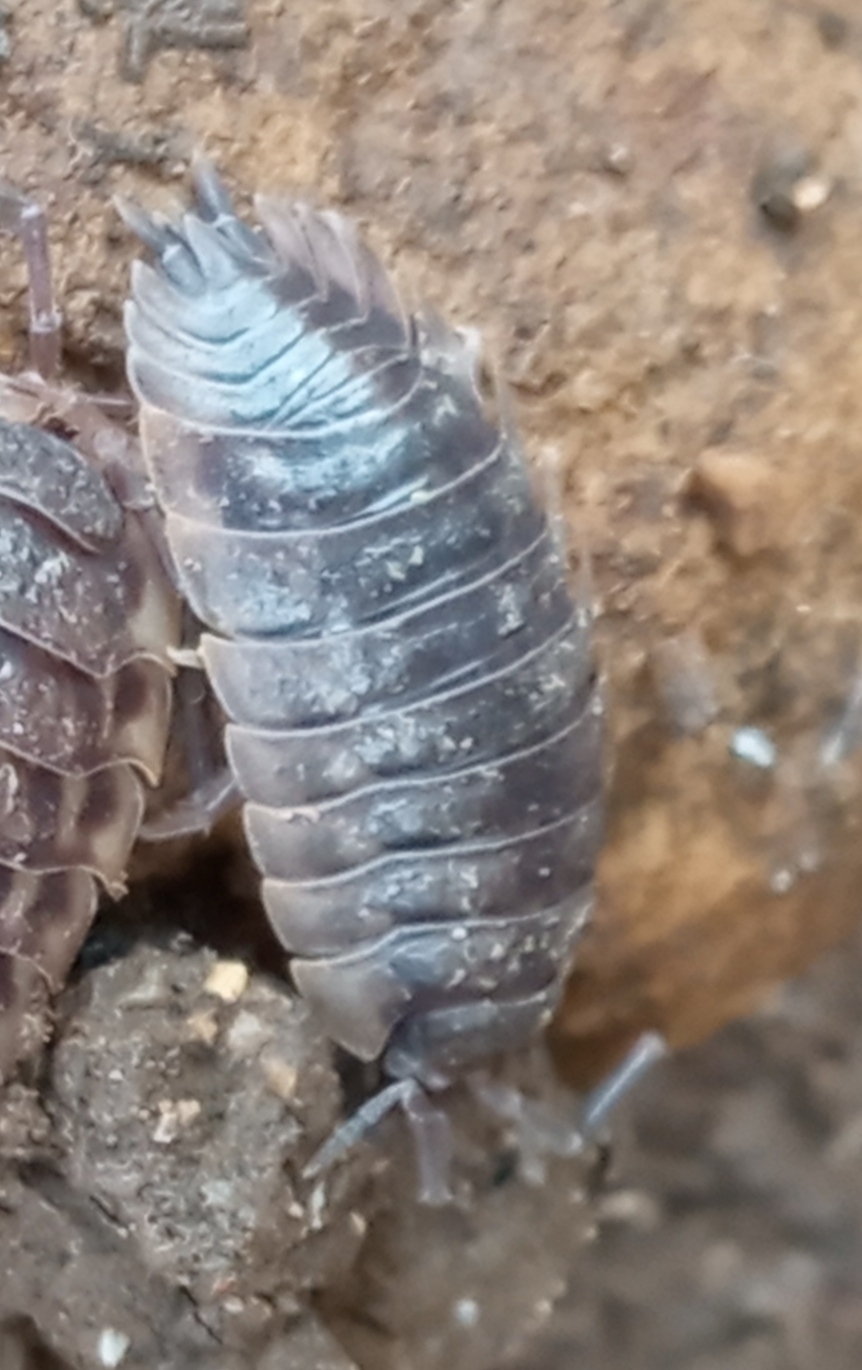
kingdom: Animalia
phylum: Arthropoda
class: Malacostraca
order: Isopoda
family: Oniscidae
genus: Oniscus
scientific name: Oniscus asellus
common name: Common shiny woodlouse
